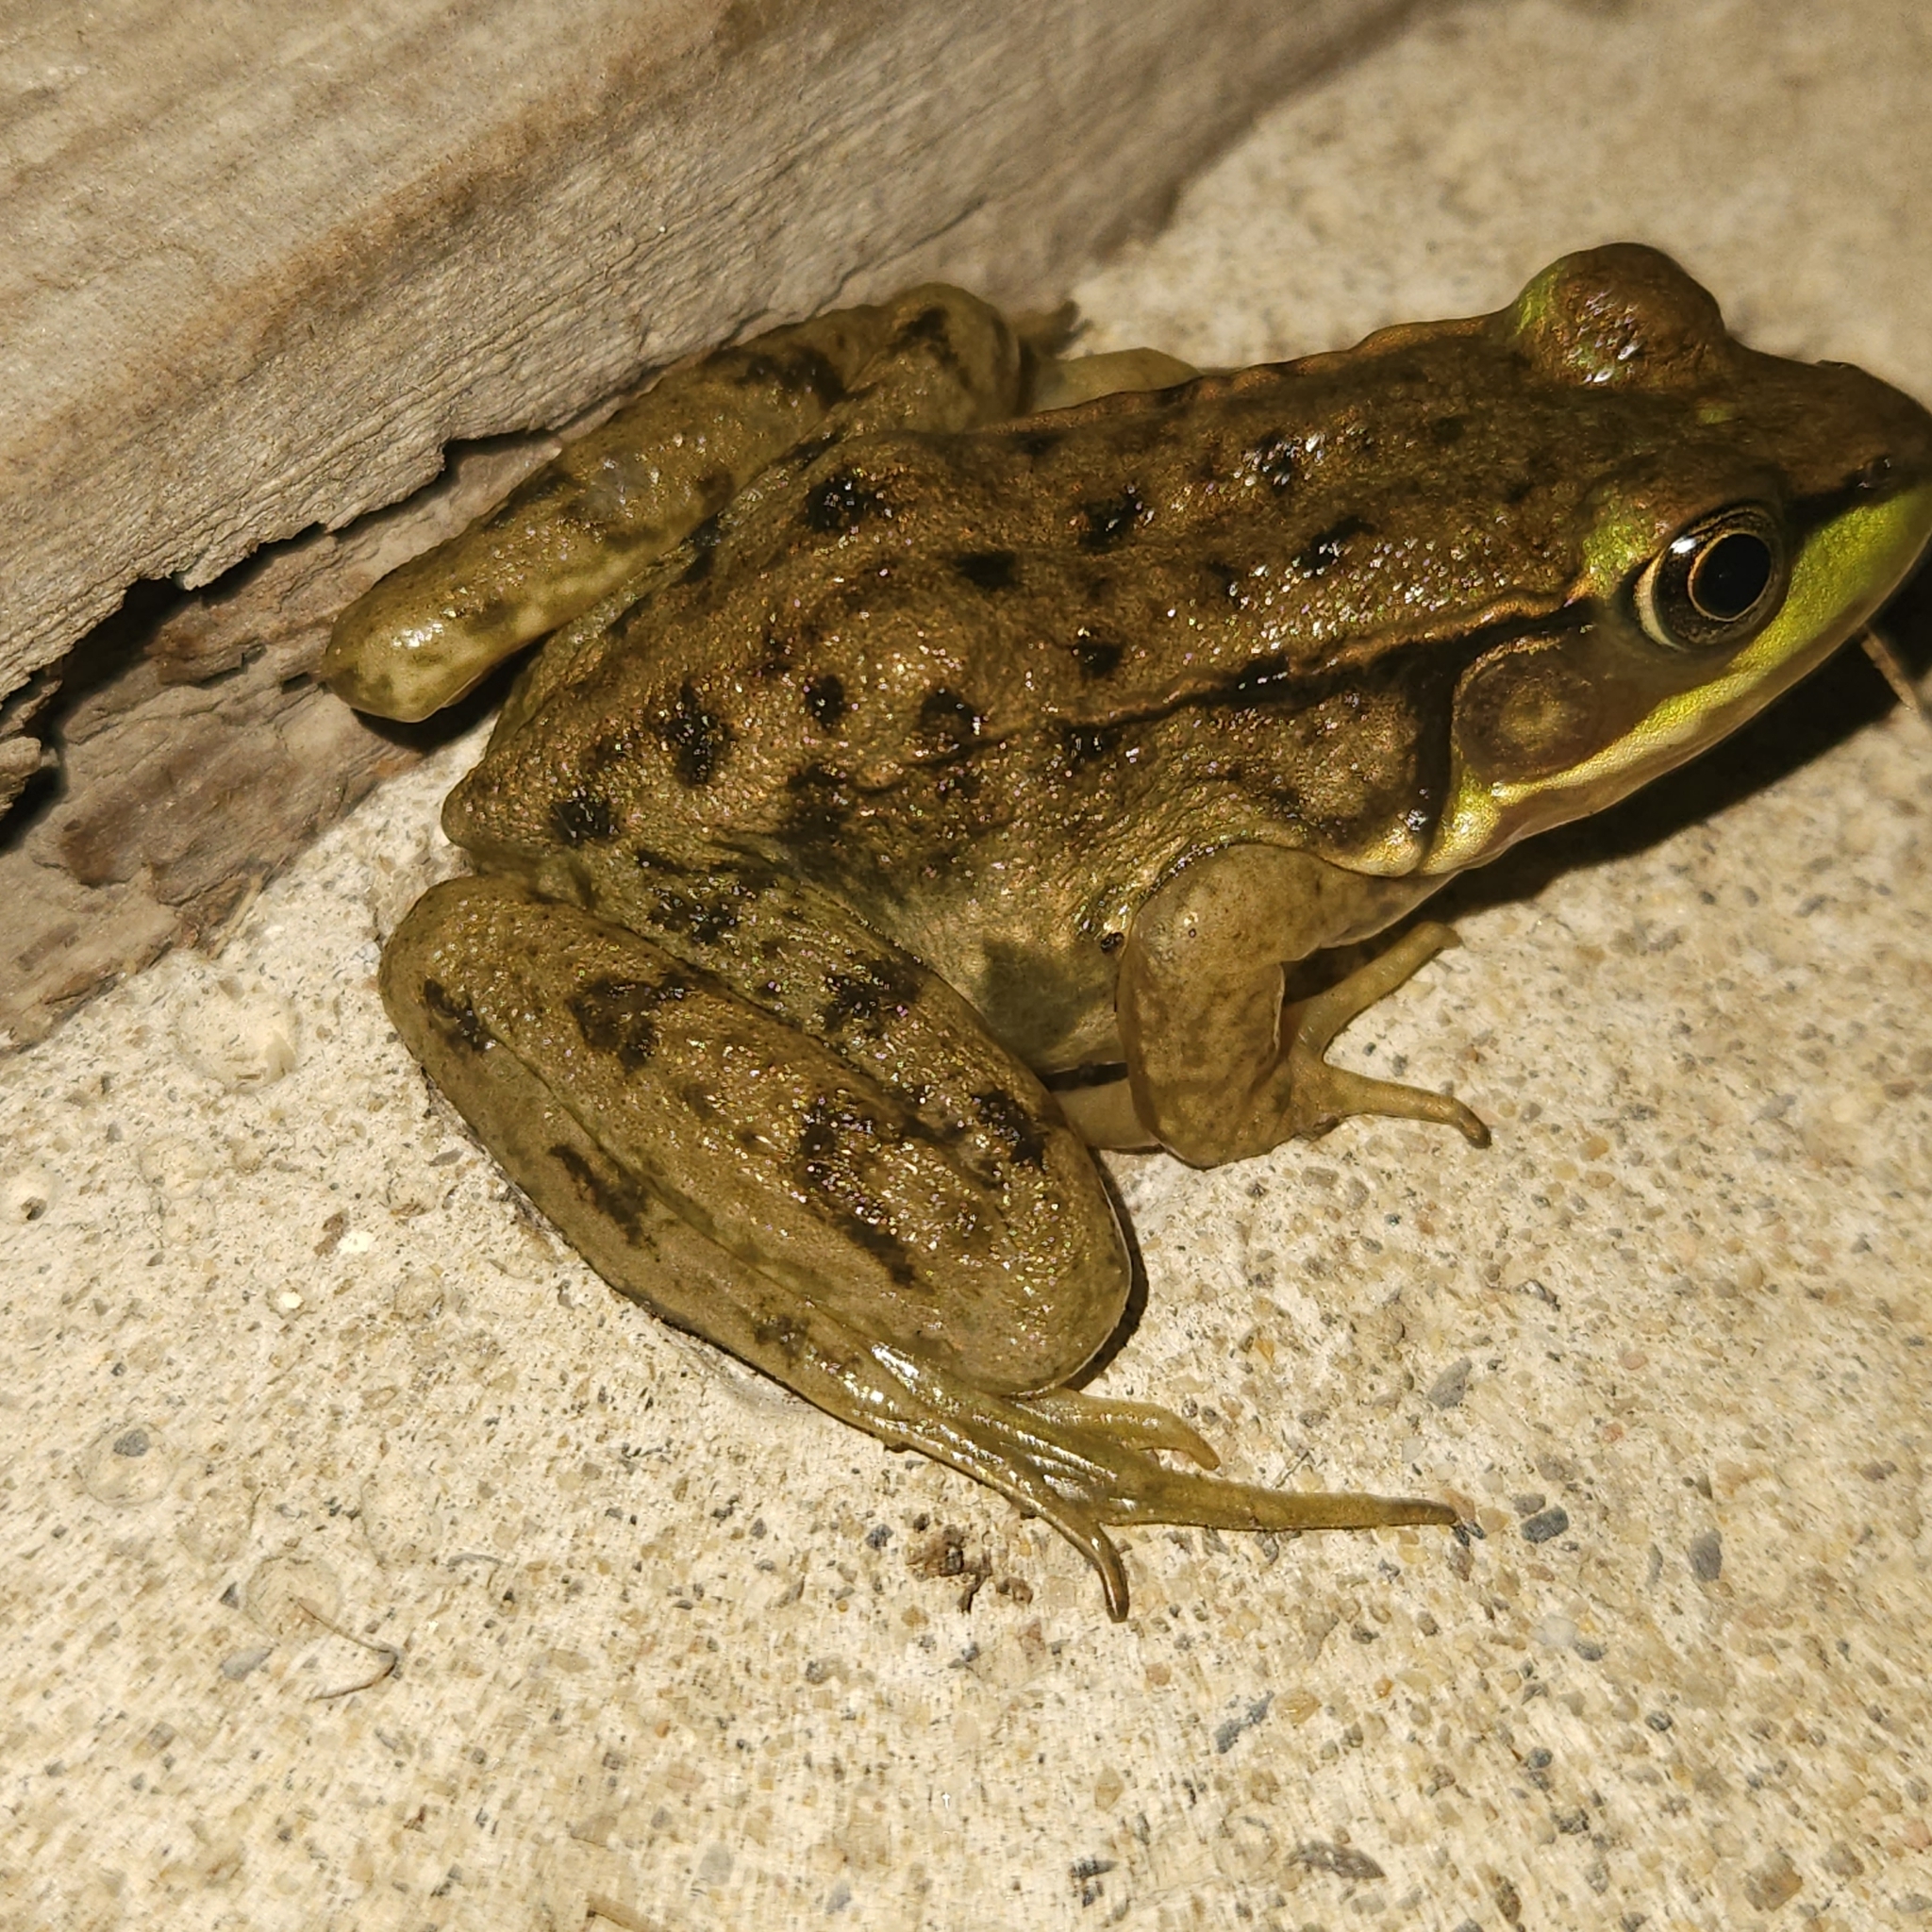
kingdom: Animalia
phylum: Chordata
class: Amphibia
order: Anura
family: Ranidae
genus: Lithobates
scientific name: Lithobates clamitans
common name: Green frog
